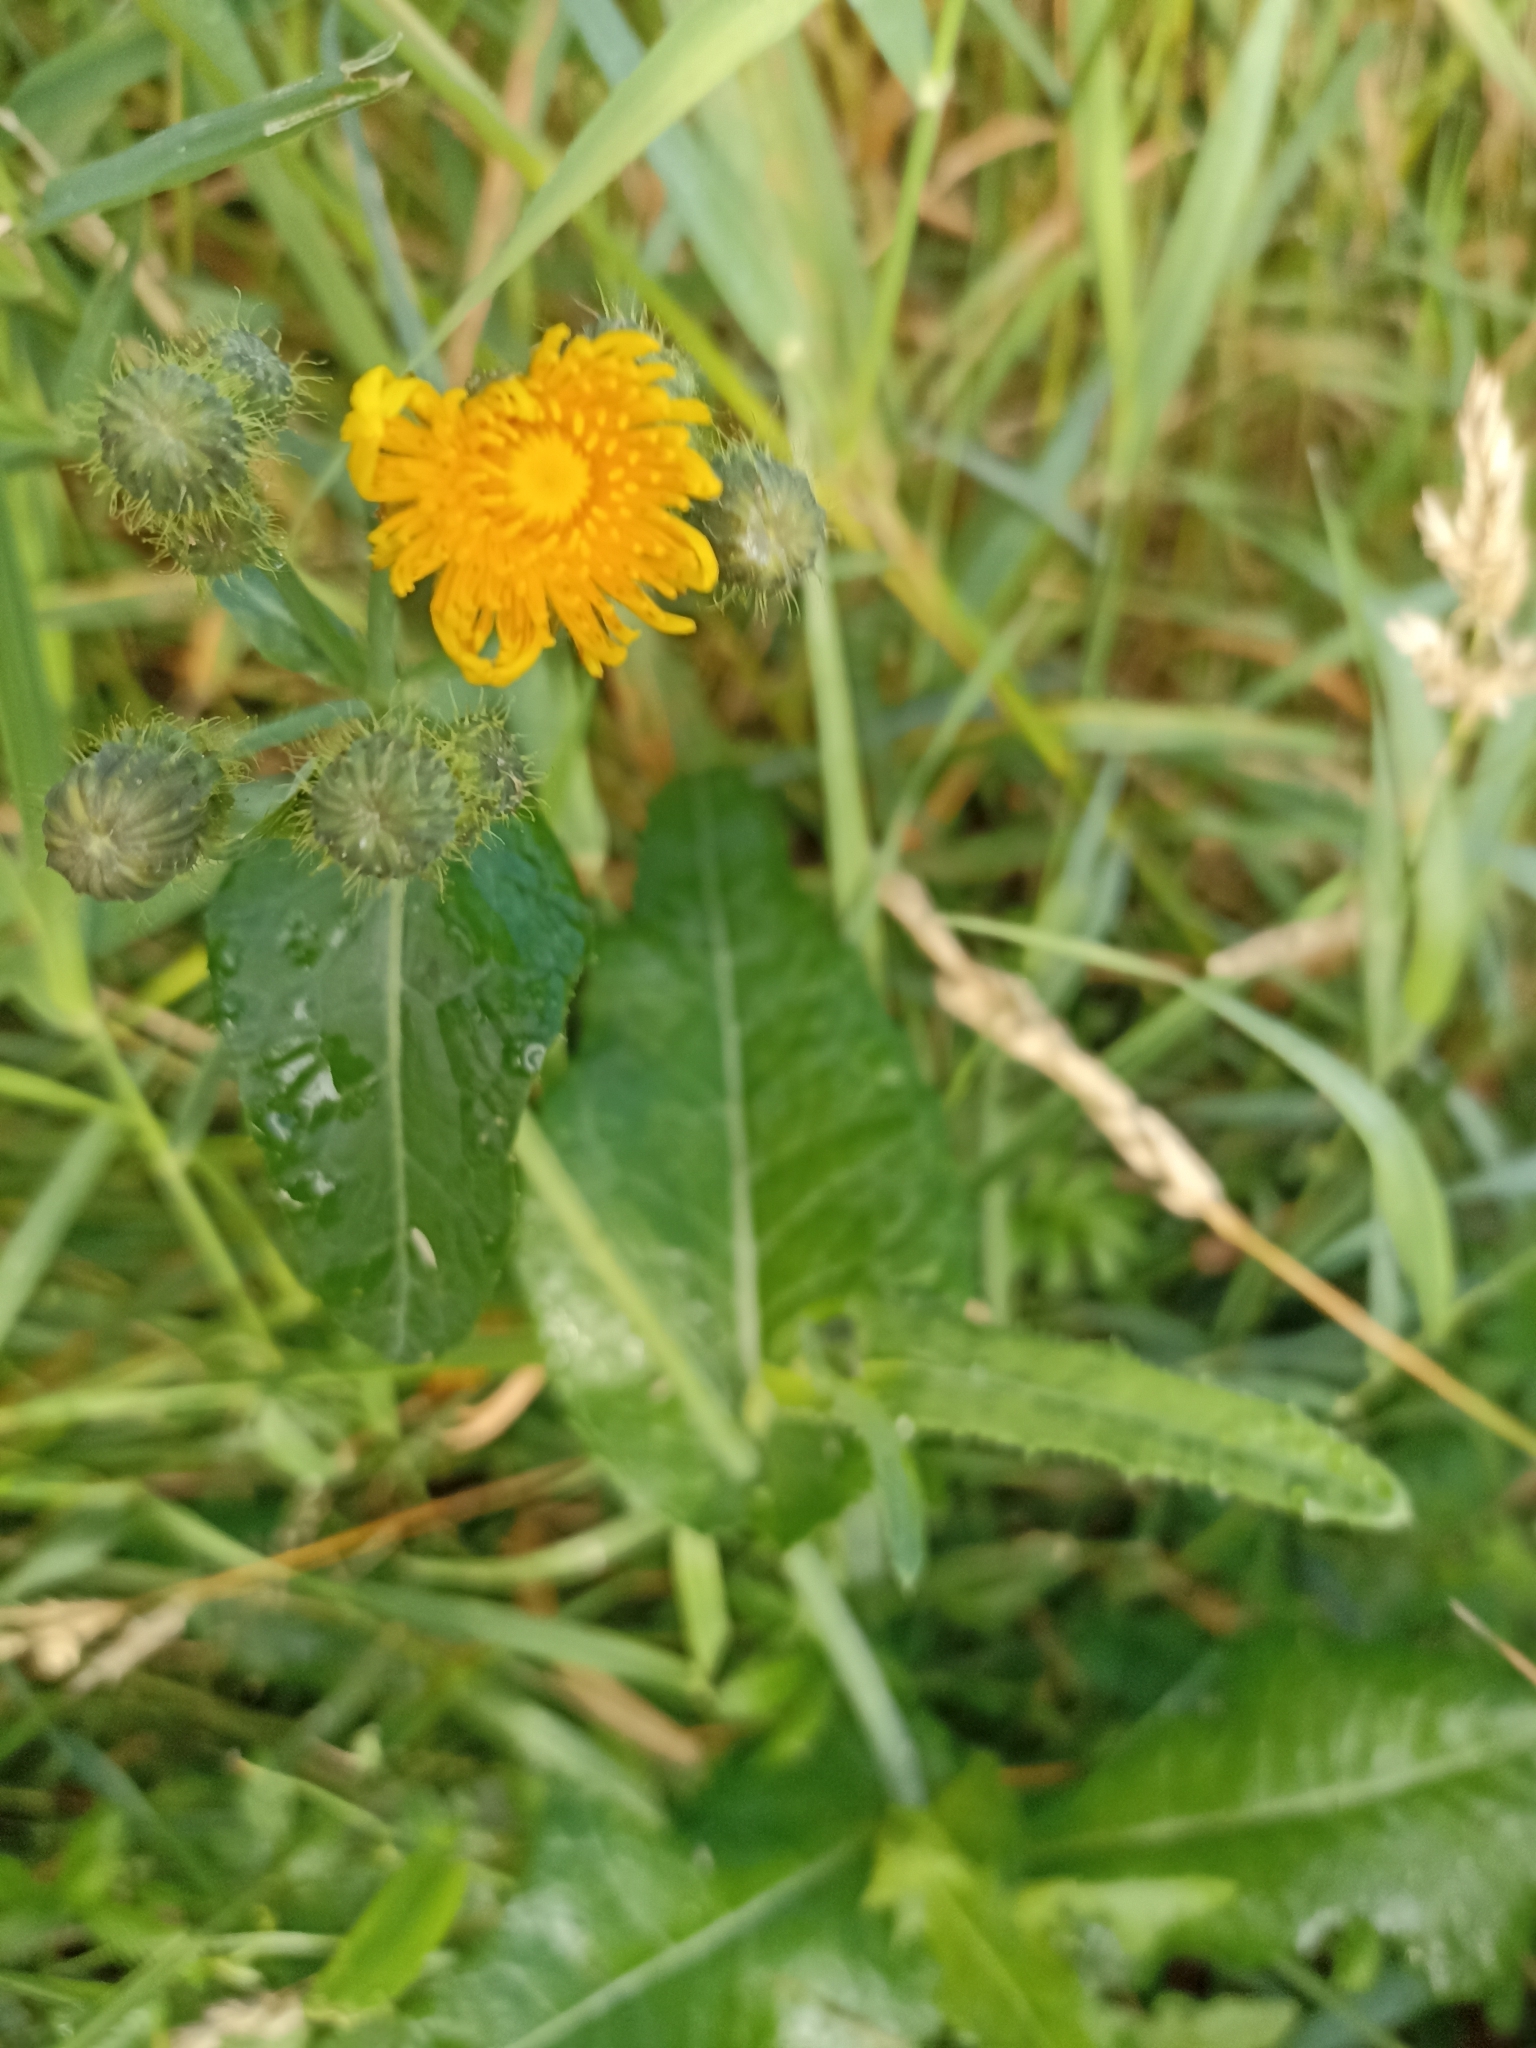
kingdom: Plantae
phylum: Tracheophyta
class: Magnoliopsida
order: Asterales
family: Asteraceae
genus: Sonchus
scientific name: Sonchus arvensis
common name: Perennial sow-thistle
